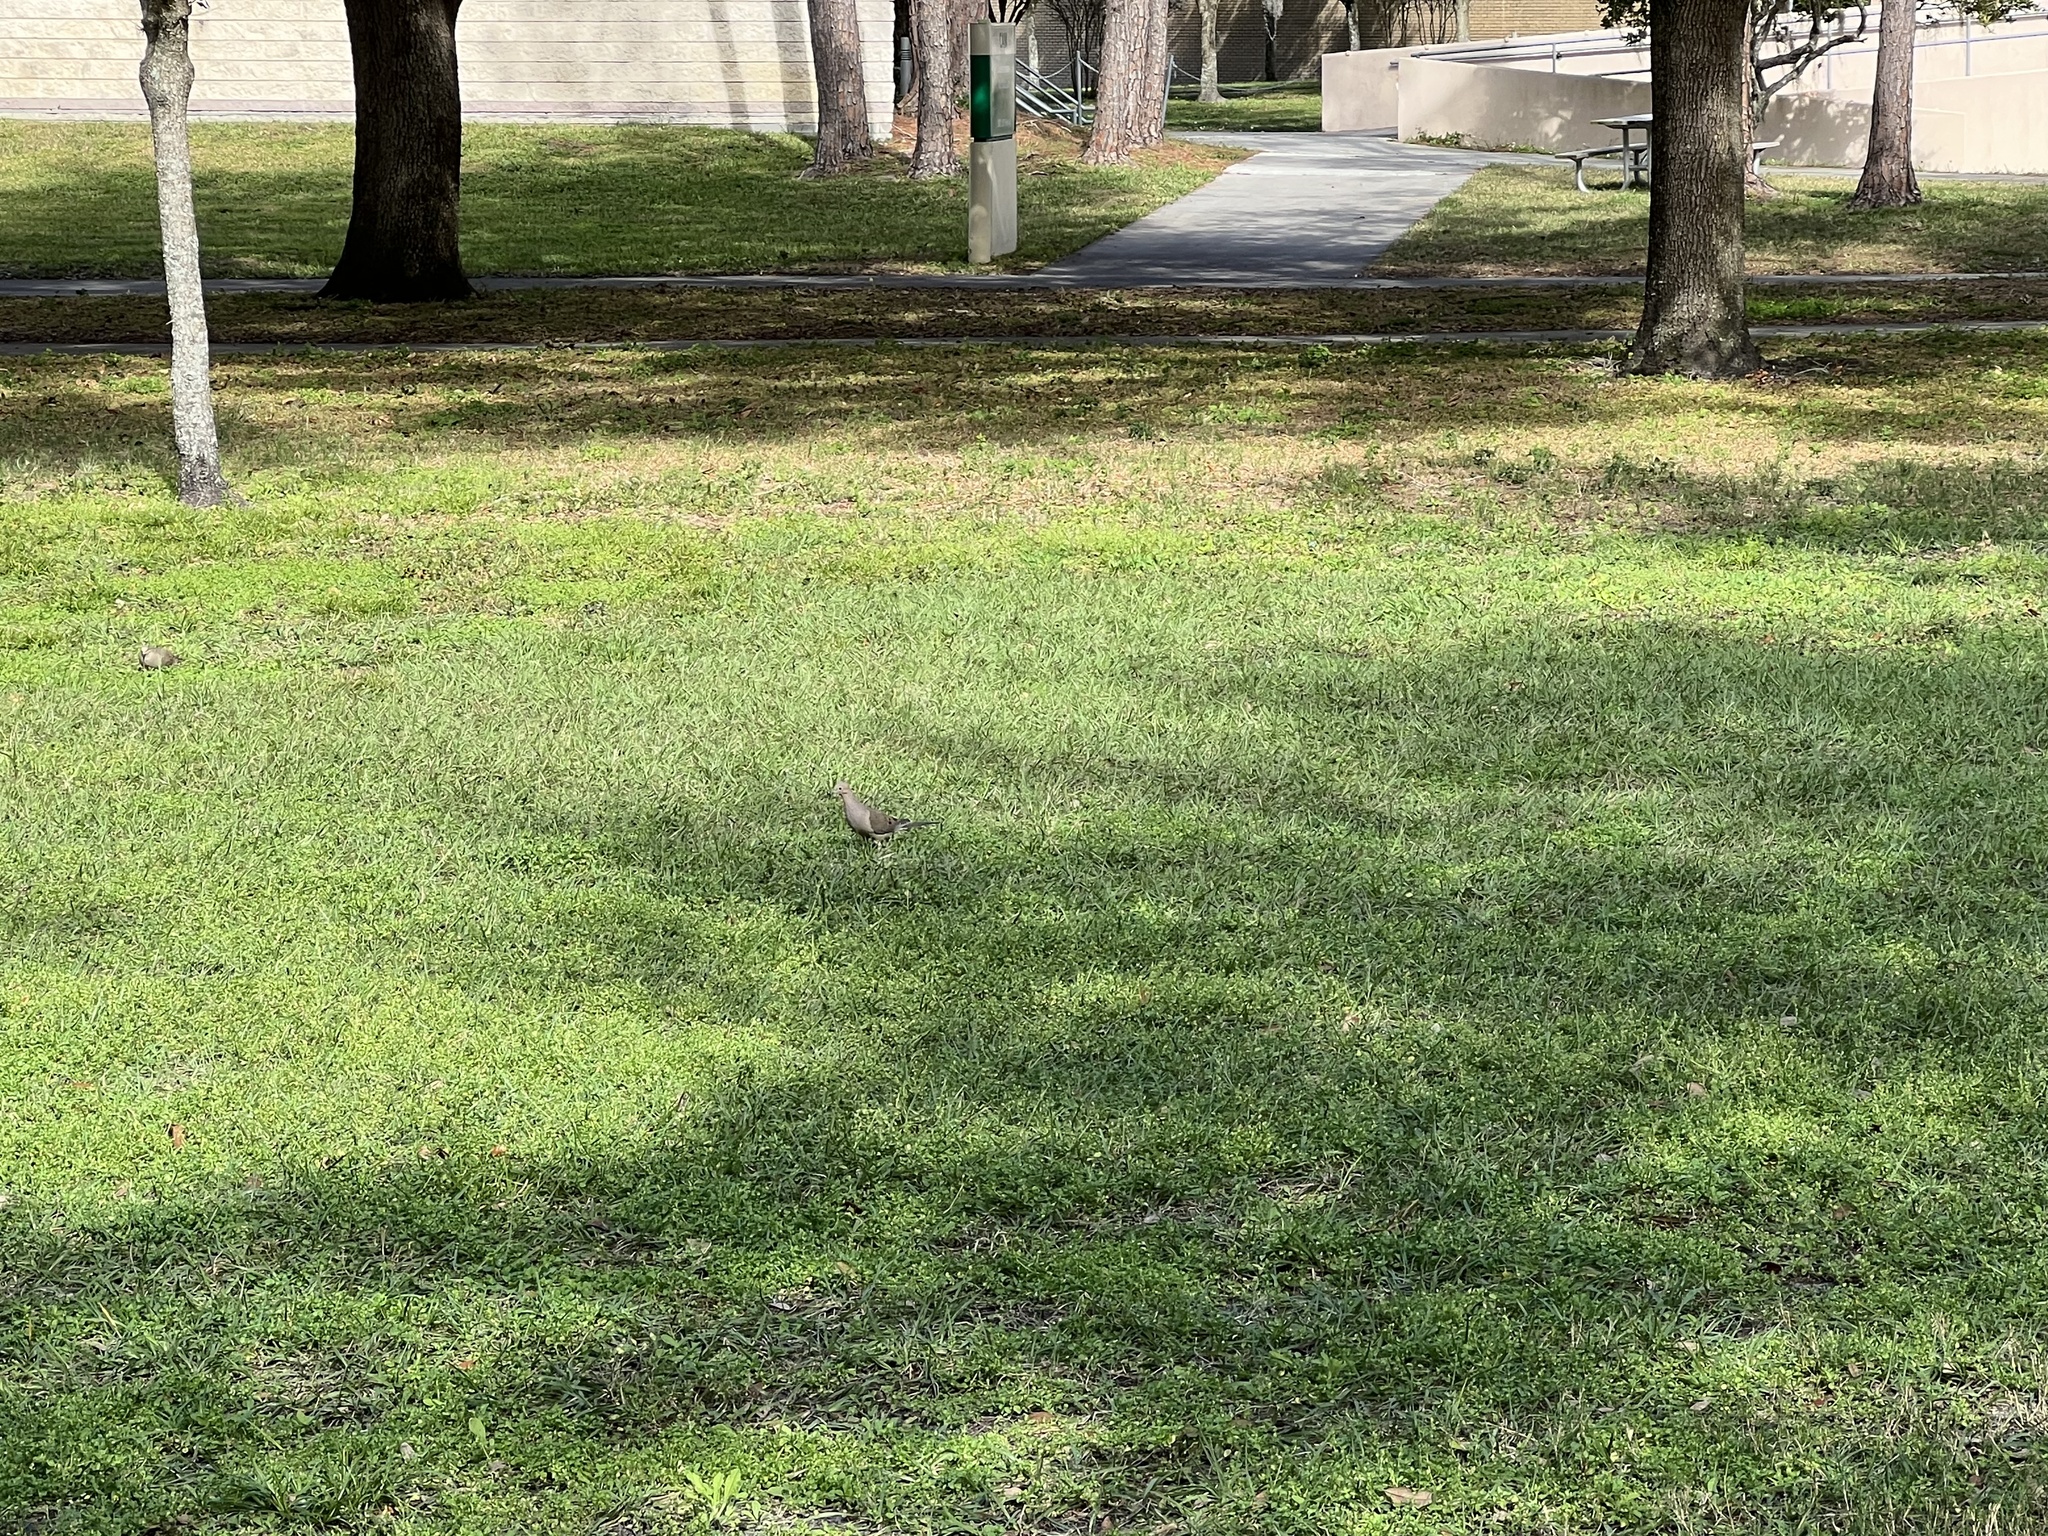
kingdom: Animalia
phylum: Chordata
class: Aves
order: Columbiformes
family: Columbidae
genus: Zenaida
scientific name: Zenaida macroura
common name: Mourning dove
